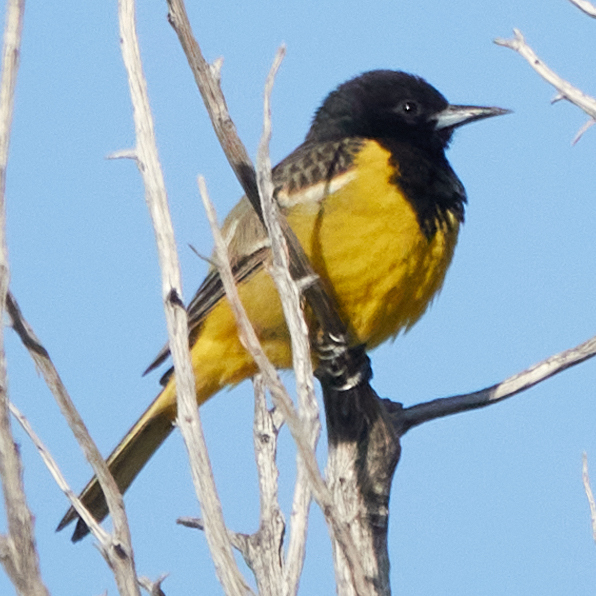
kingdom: Animalia
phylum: Chordata
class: Aves
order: Passeriformes
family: Icteridae
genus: Icterus
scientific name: Icterus parisorum
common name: Scott's oriole
